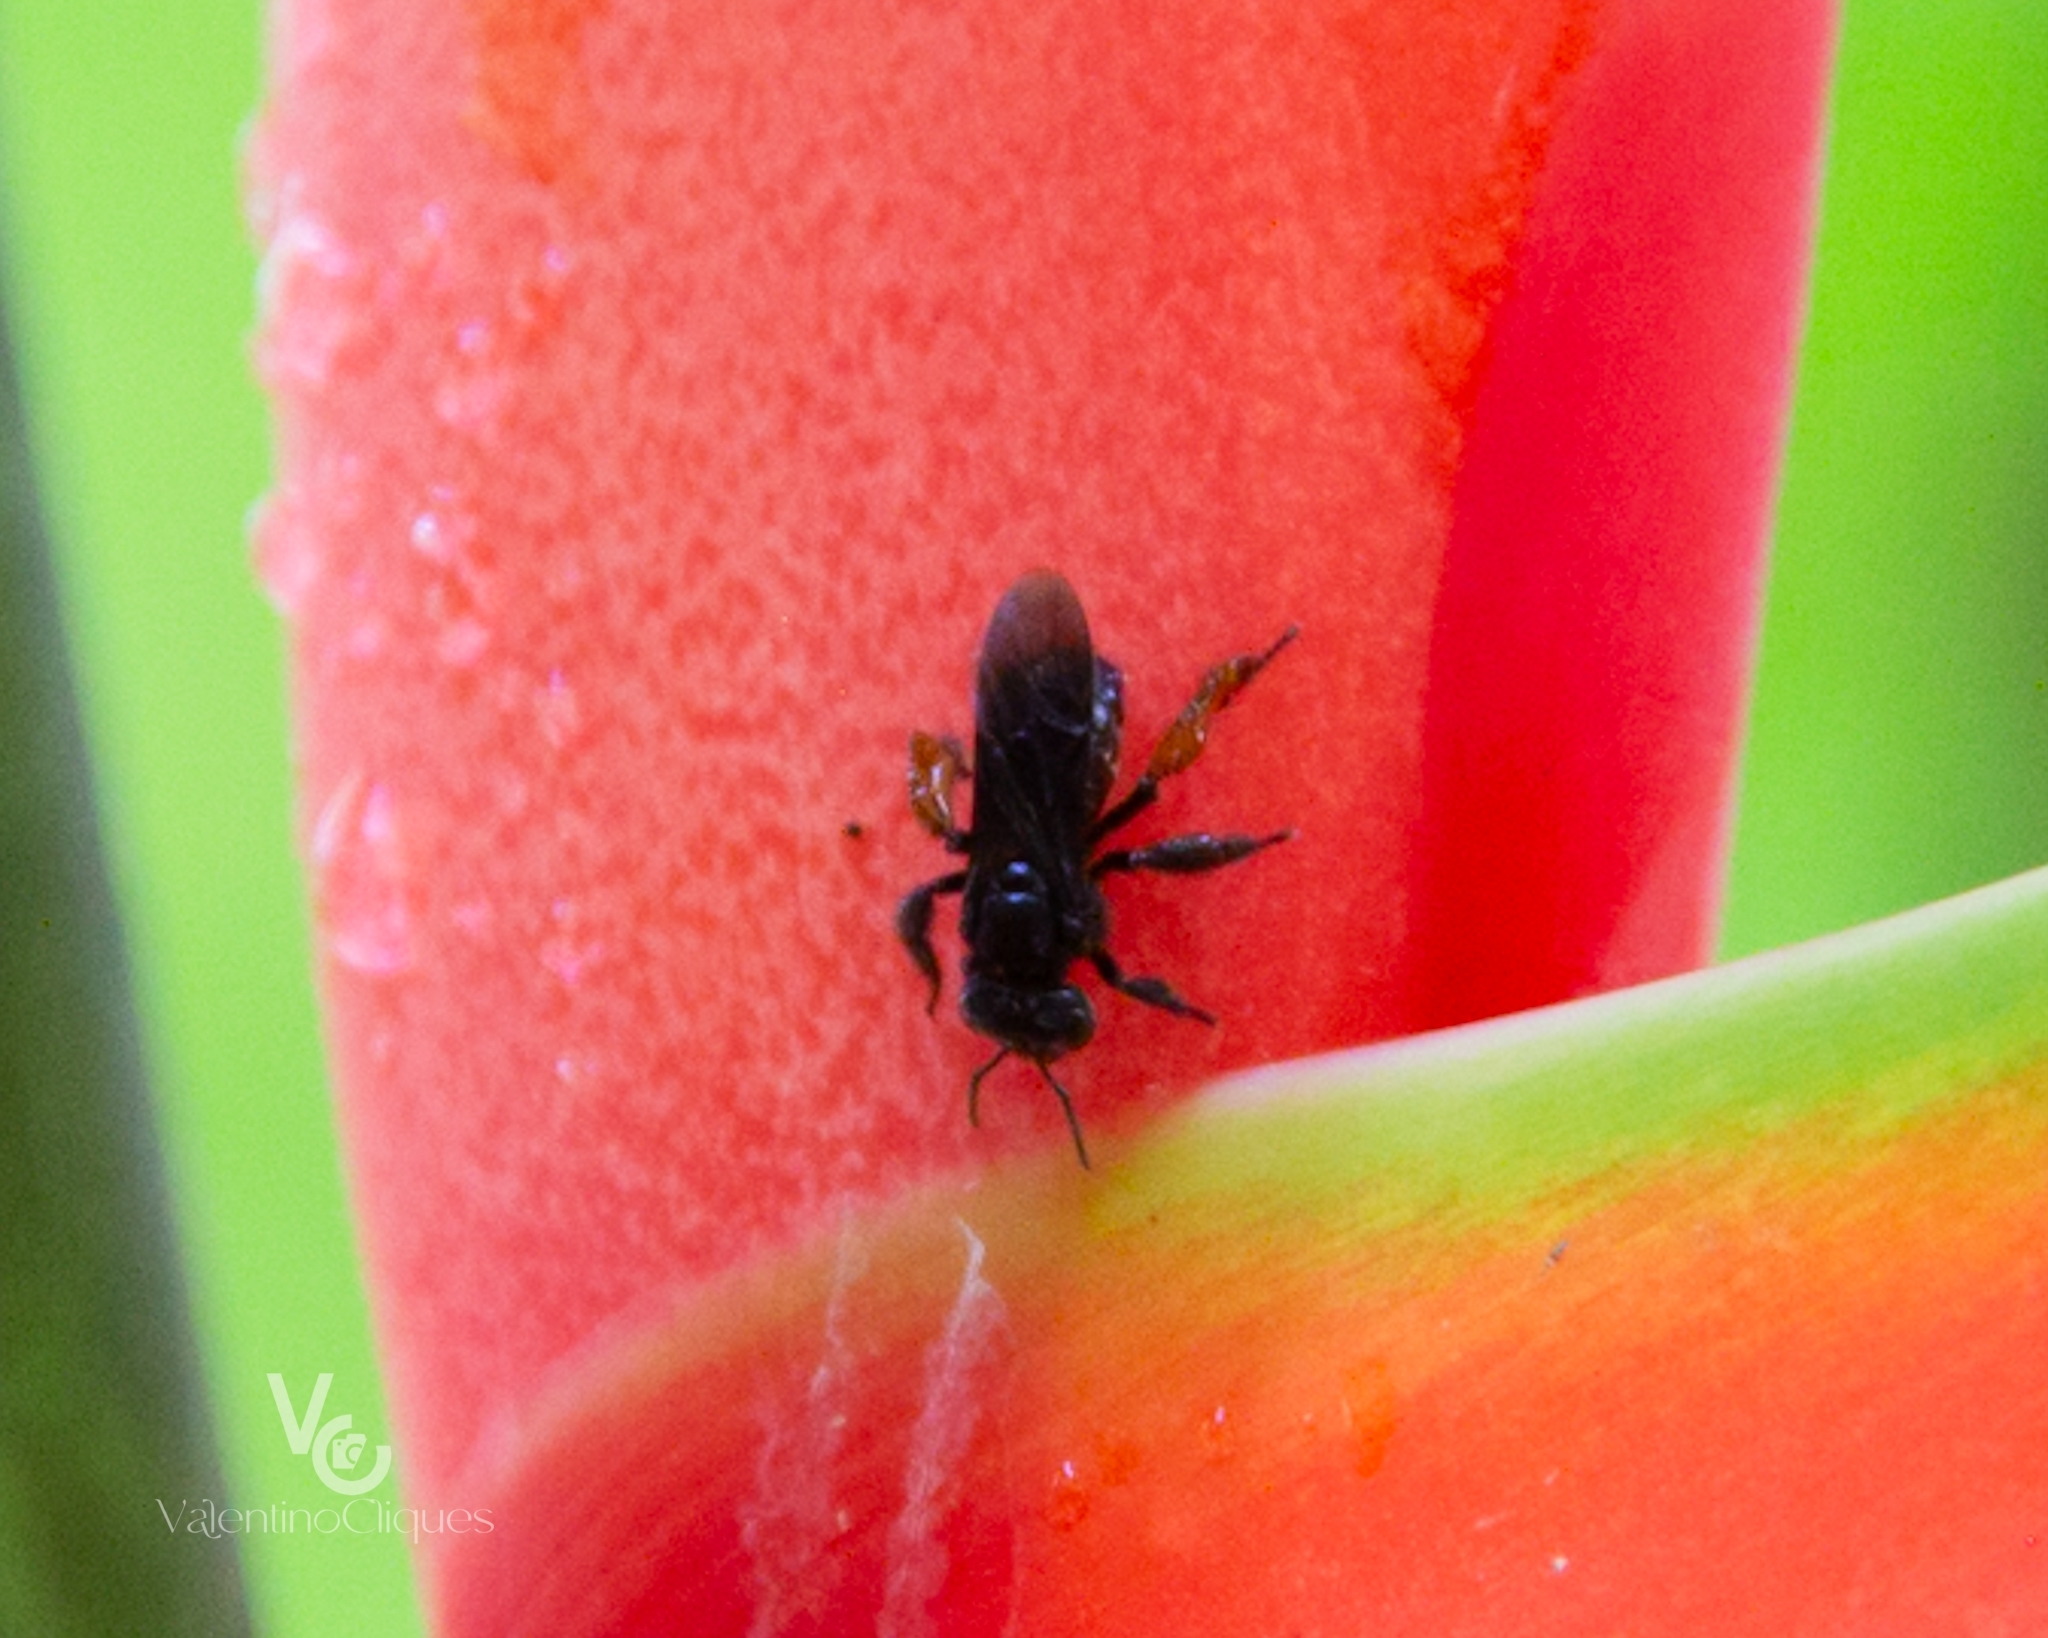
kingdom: Animalia
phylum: Arthropoda
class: Insecta
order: Hymenoptera
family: Apidae
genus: Trigona
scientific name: Trigona spinipes
